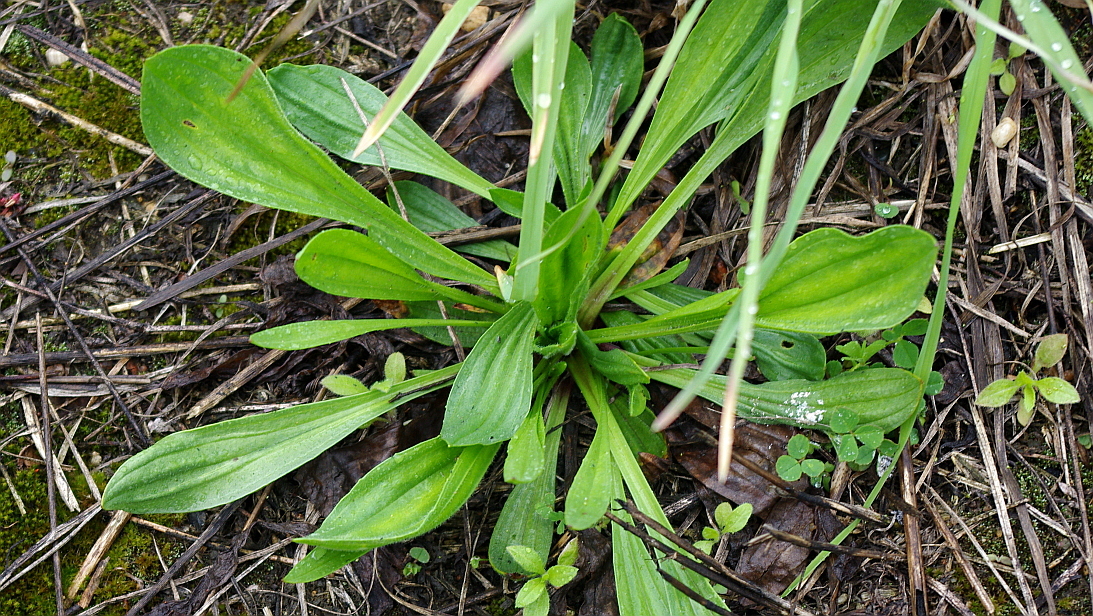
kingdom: Plantae
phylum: Tracheophyta
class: Magnoliopsida
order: Lamiales
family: Plantaginaceae
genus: Plantago
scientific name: Plantago lanceolata
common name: Ribwort plantain
